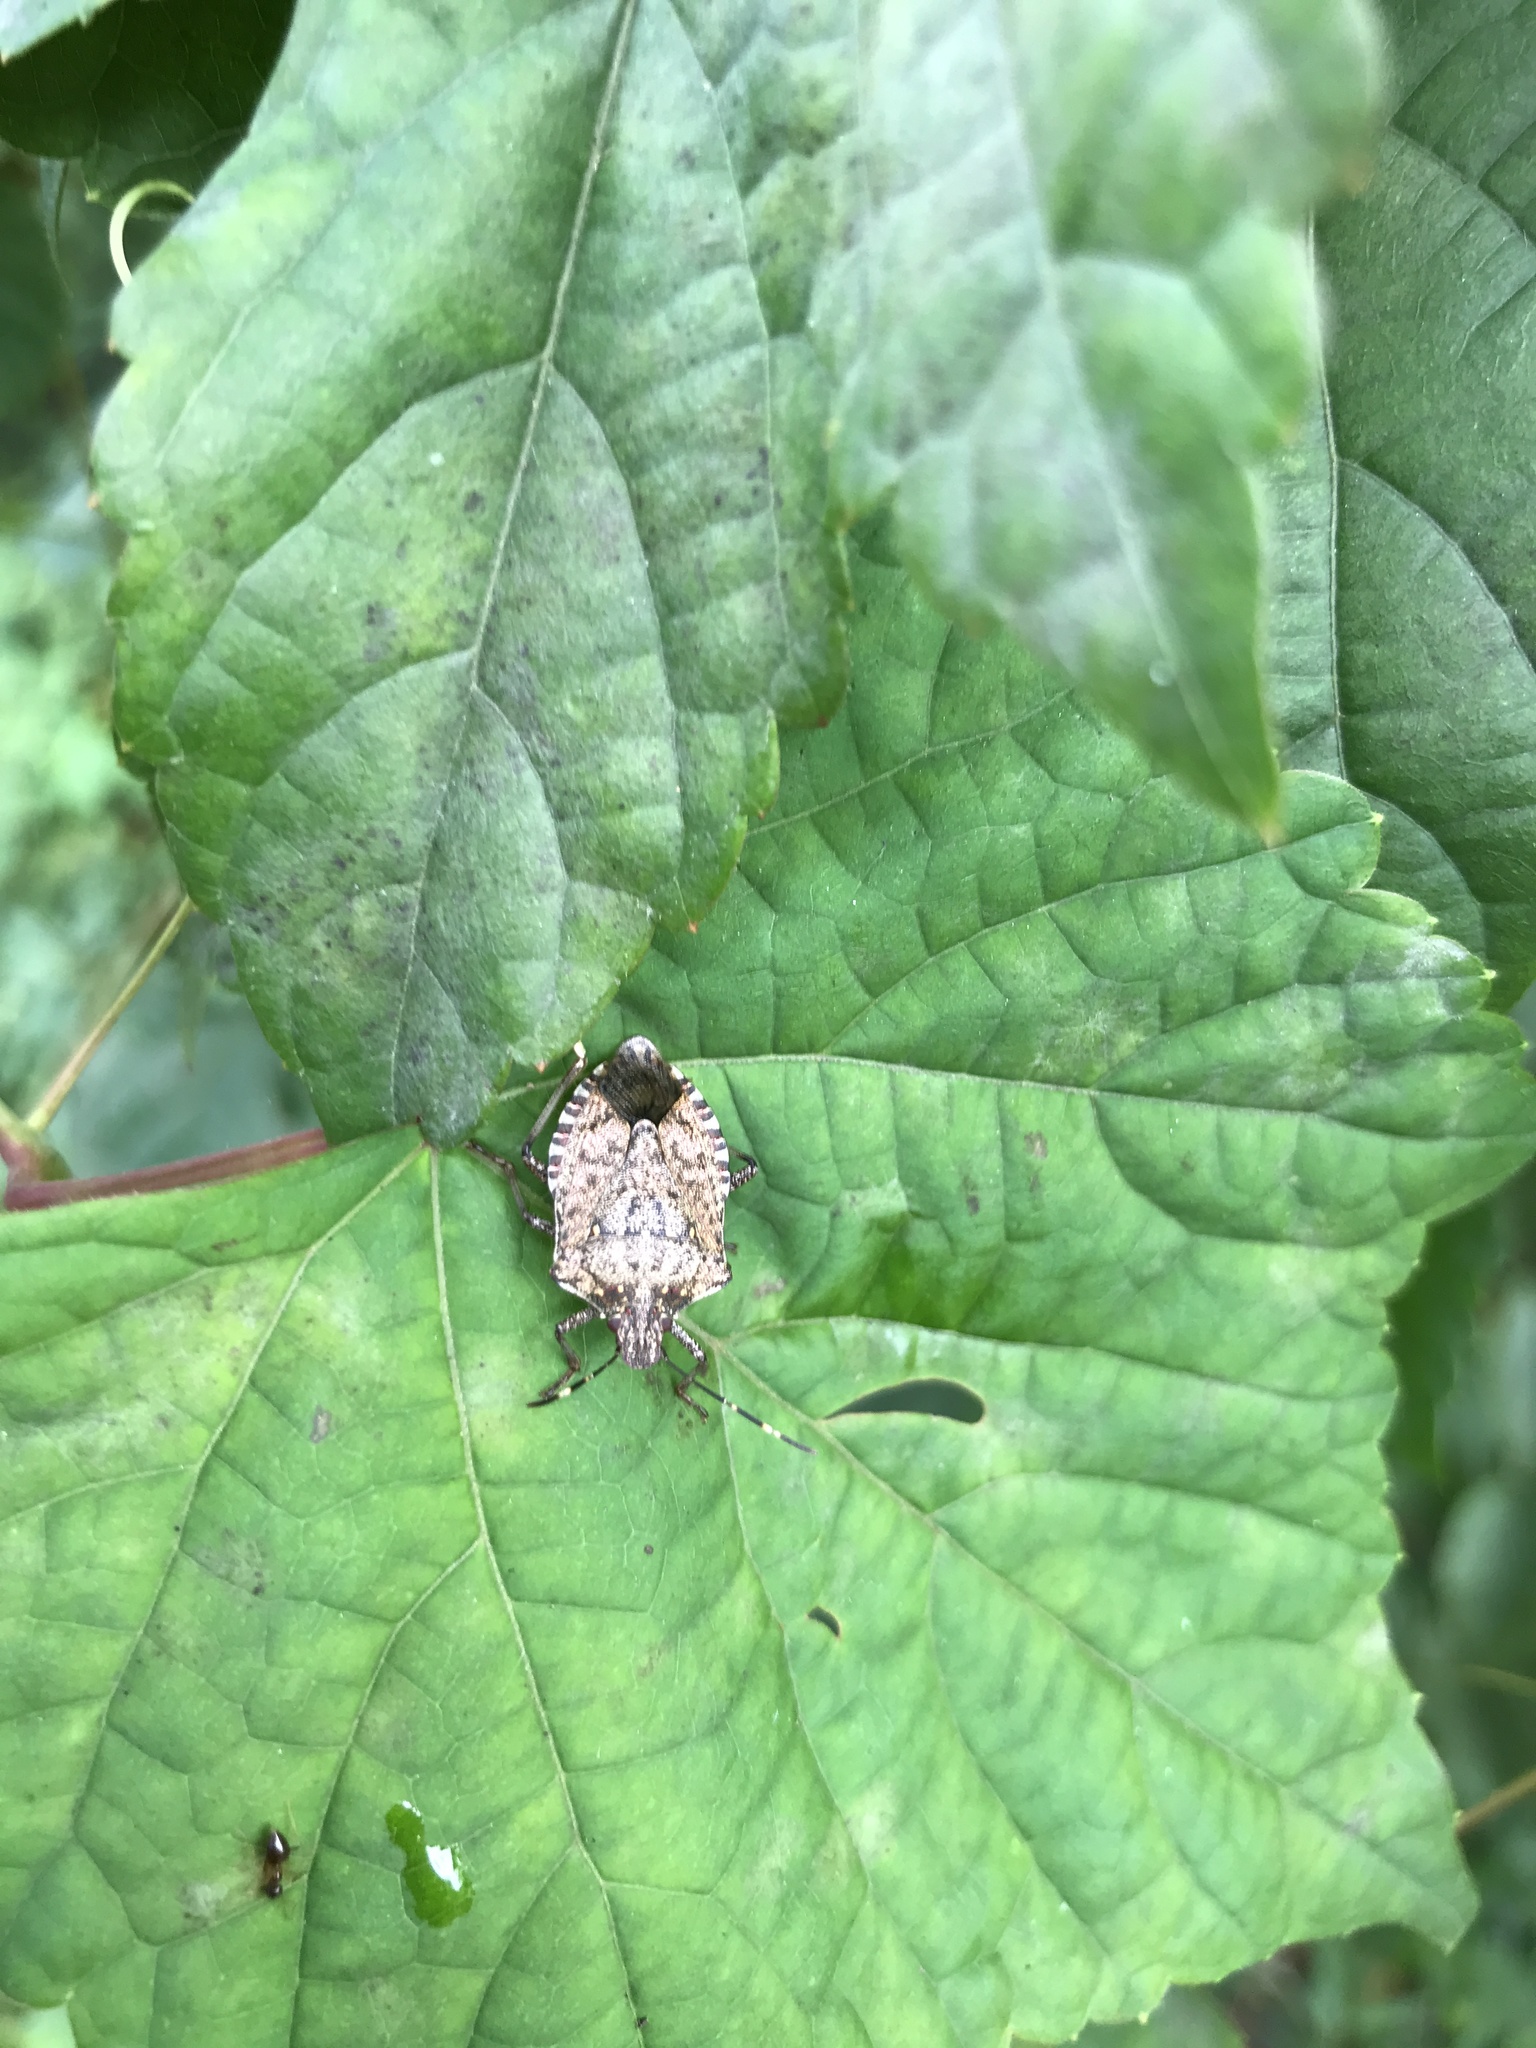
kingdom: Animalia
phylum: Arthropoda
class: Insecta
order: Hemiptera
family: Pentatomidae
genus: Halyomorpha
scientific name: Halyomorpha halys
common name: Brown marmorated stink bug
